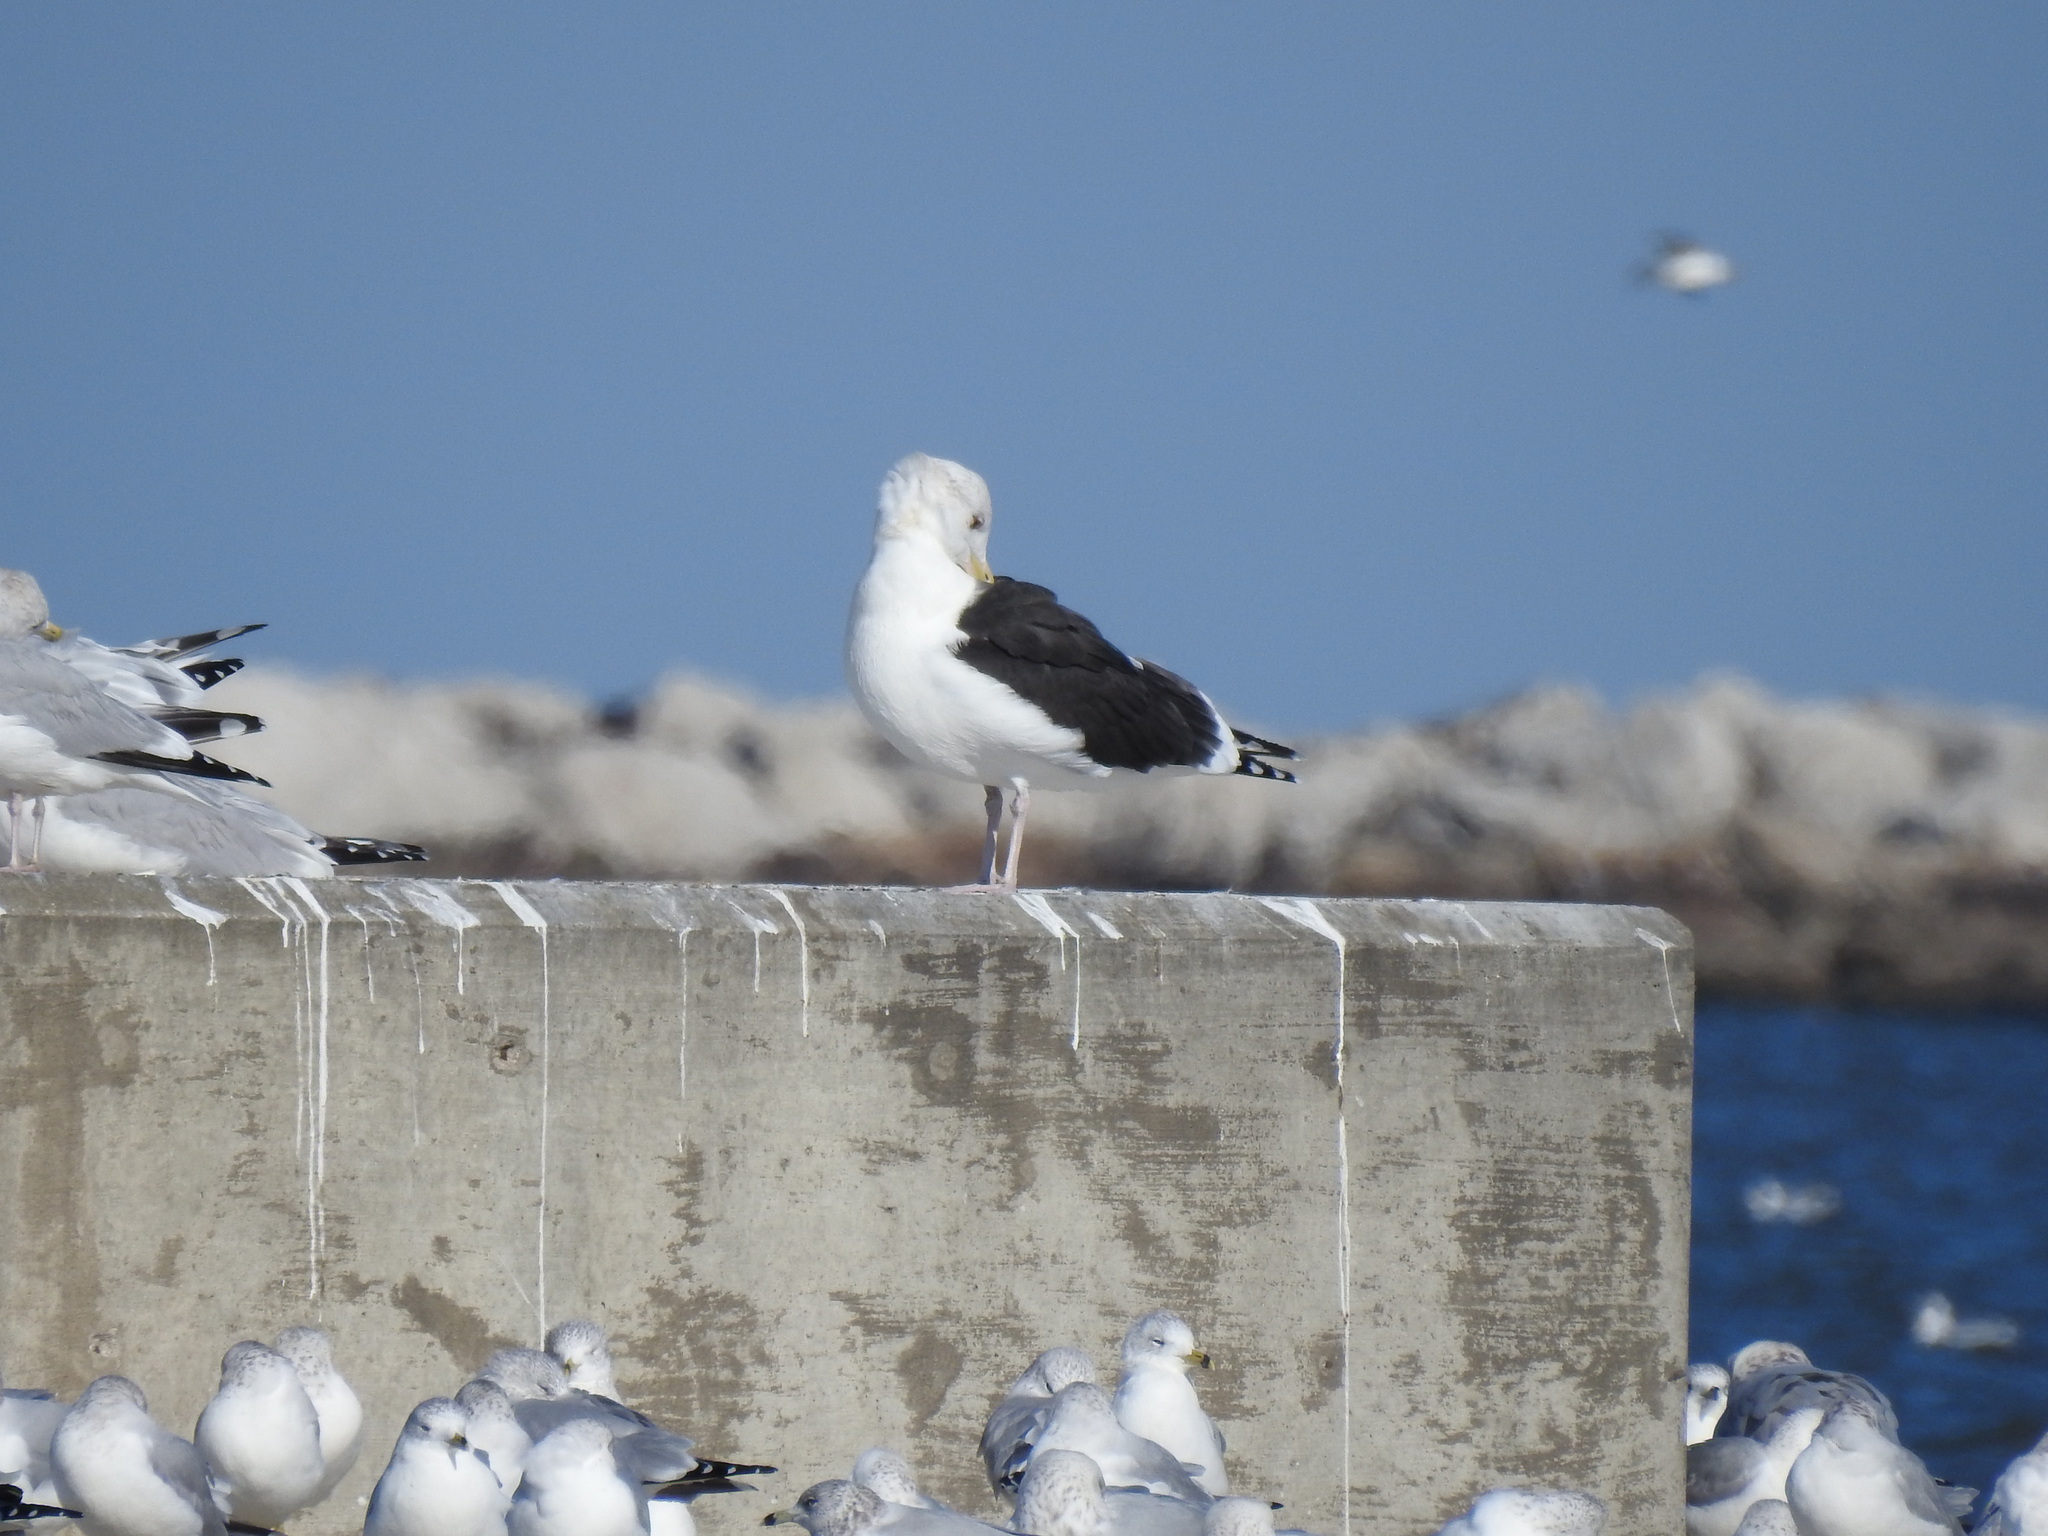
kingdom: Animalia
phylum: Chordata
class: Aves
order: Charadriiformes
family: Laridae
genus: Larus
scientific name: Larus marinus
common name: Great black-backed gull
